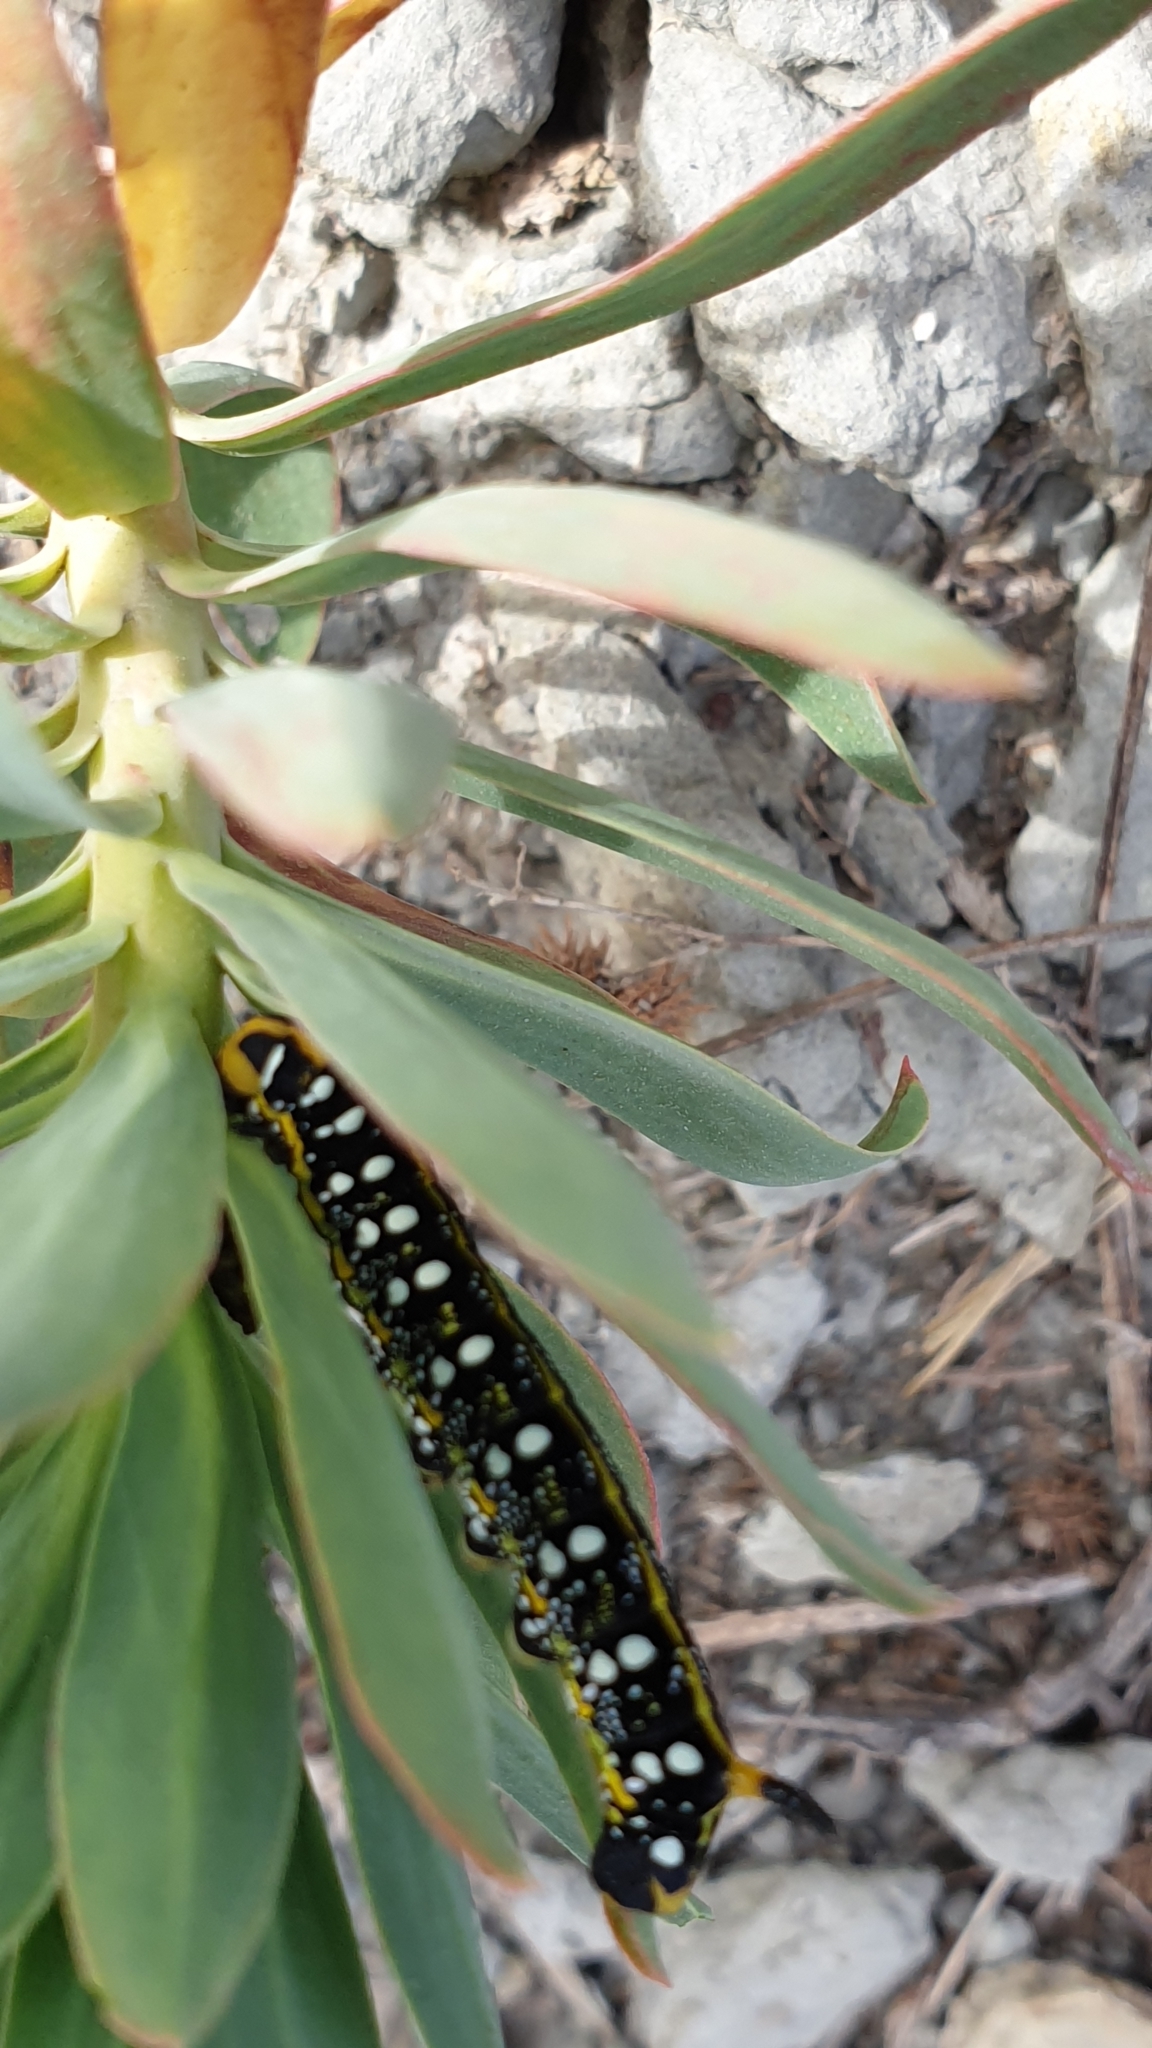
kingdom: Animalia
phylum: Arthropoda
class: Insecta
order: Lepidoptera
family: Sphingidae
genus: Hyles
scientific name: Hyles euphorbiae
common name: Spurge hawk-moth
